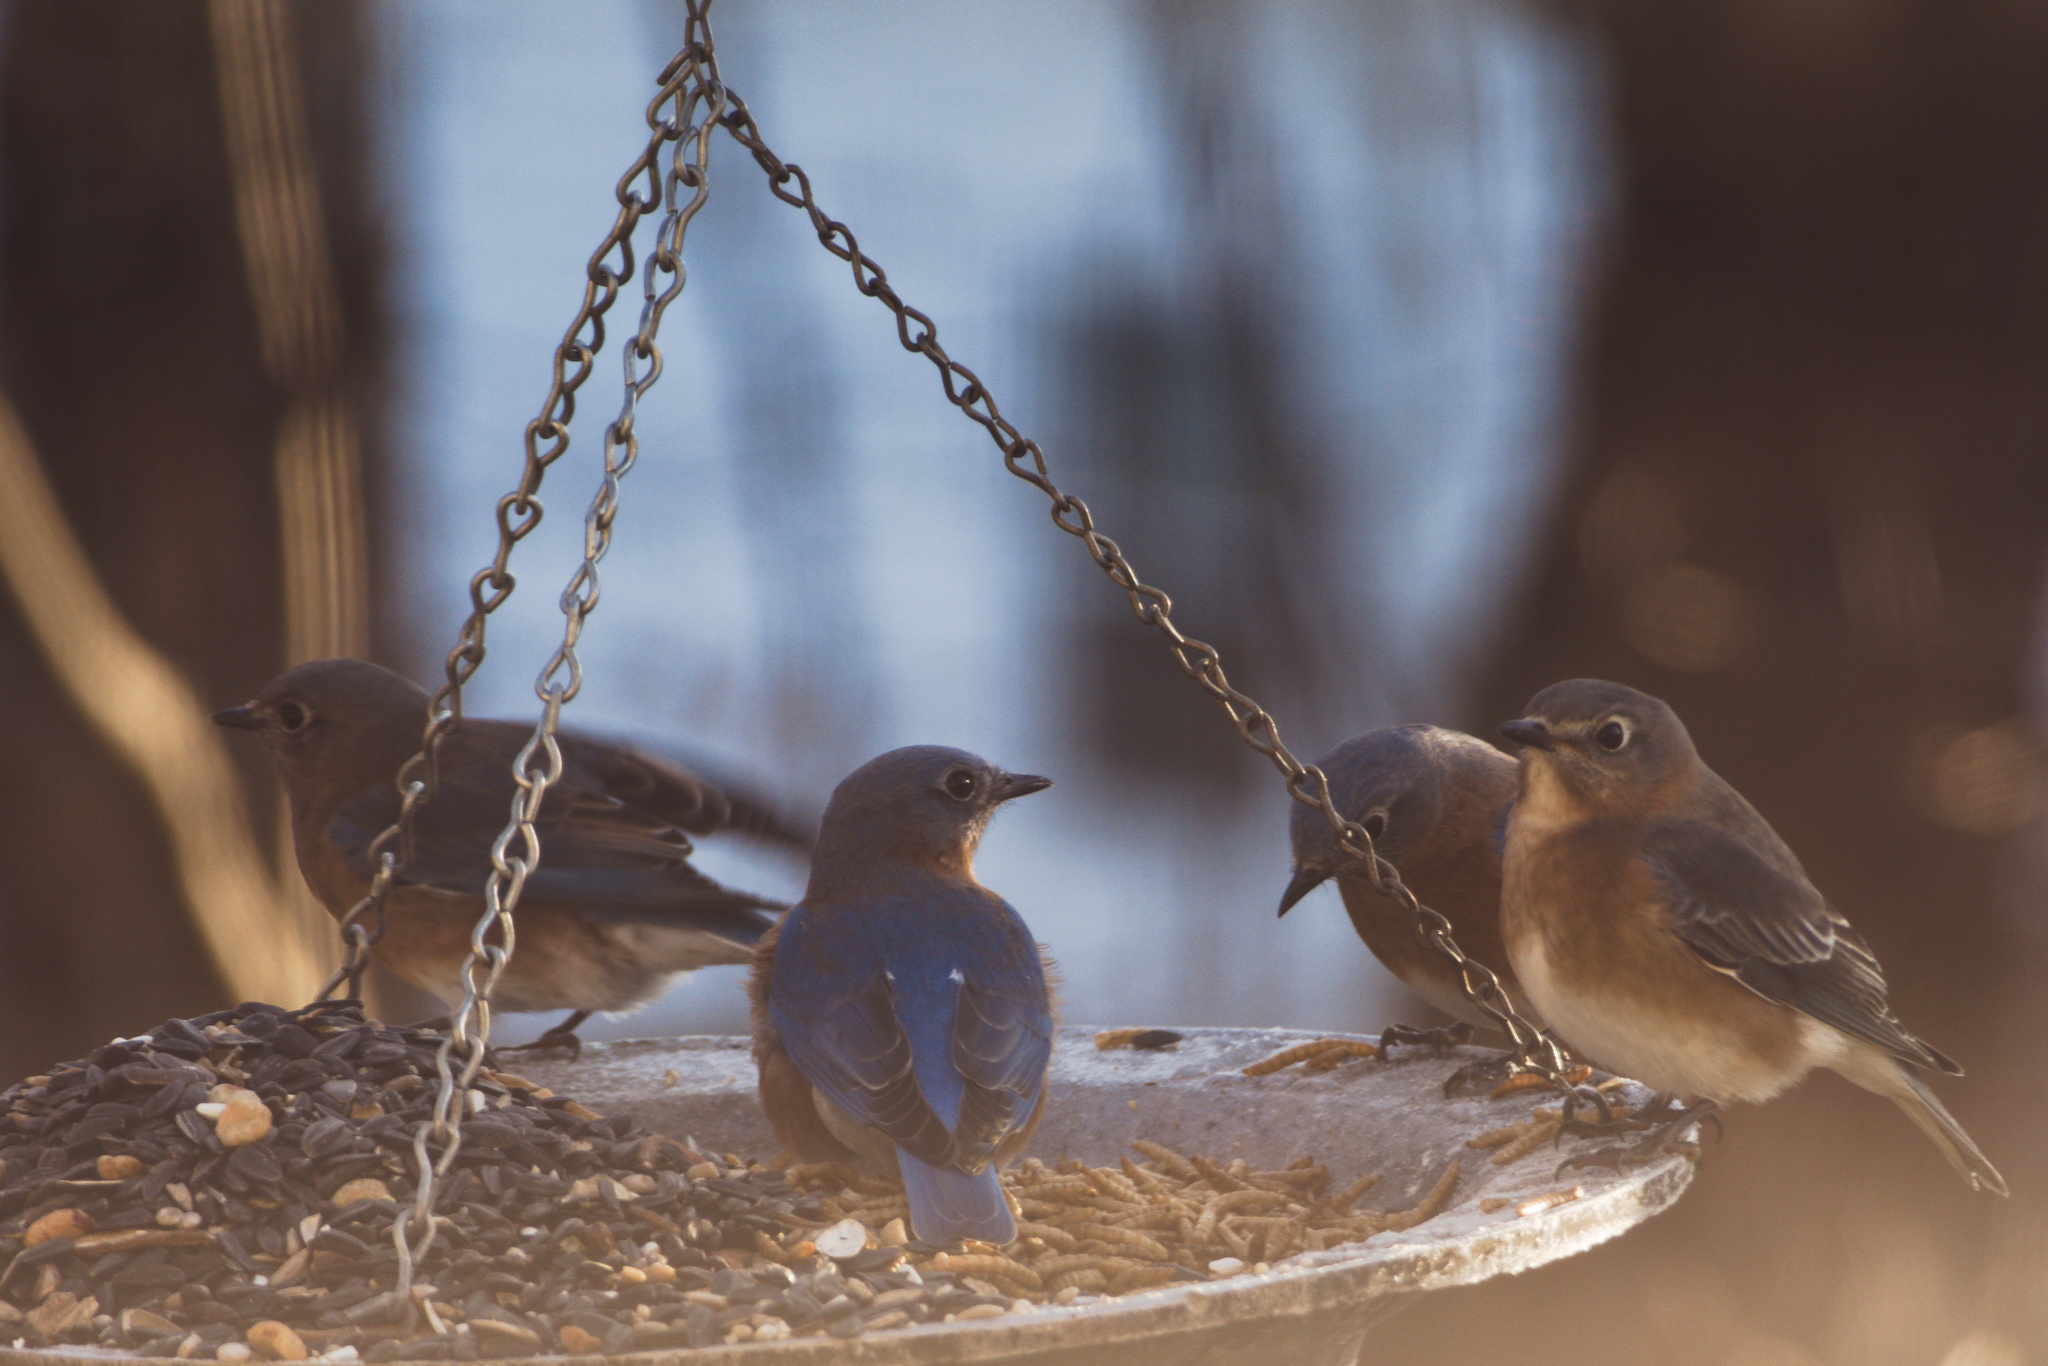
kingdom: Animalia
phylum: Chordata
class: Aves
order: Passeriformes
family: Turdidae
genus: Sialia
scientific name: Sialia sialis
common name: Eastern bluebird
